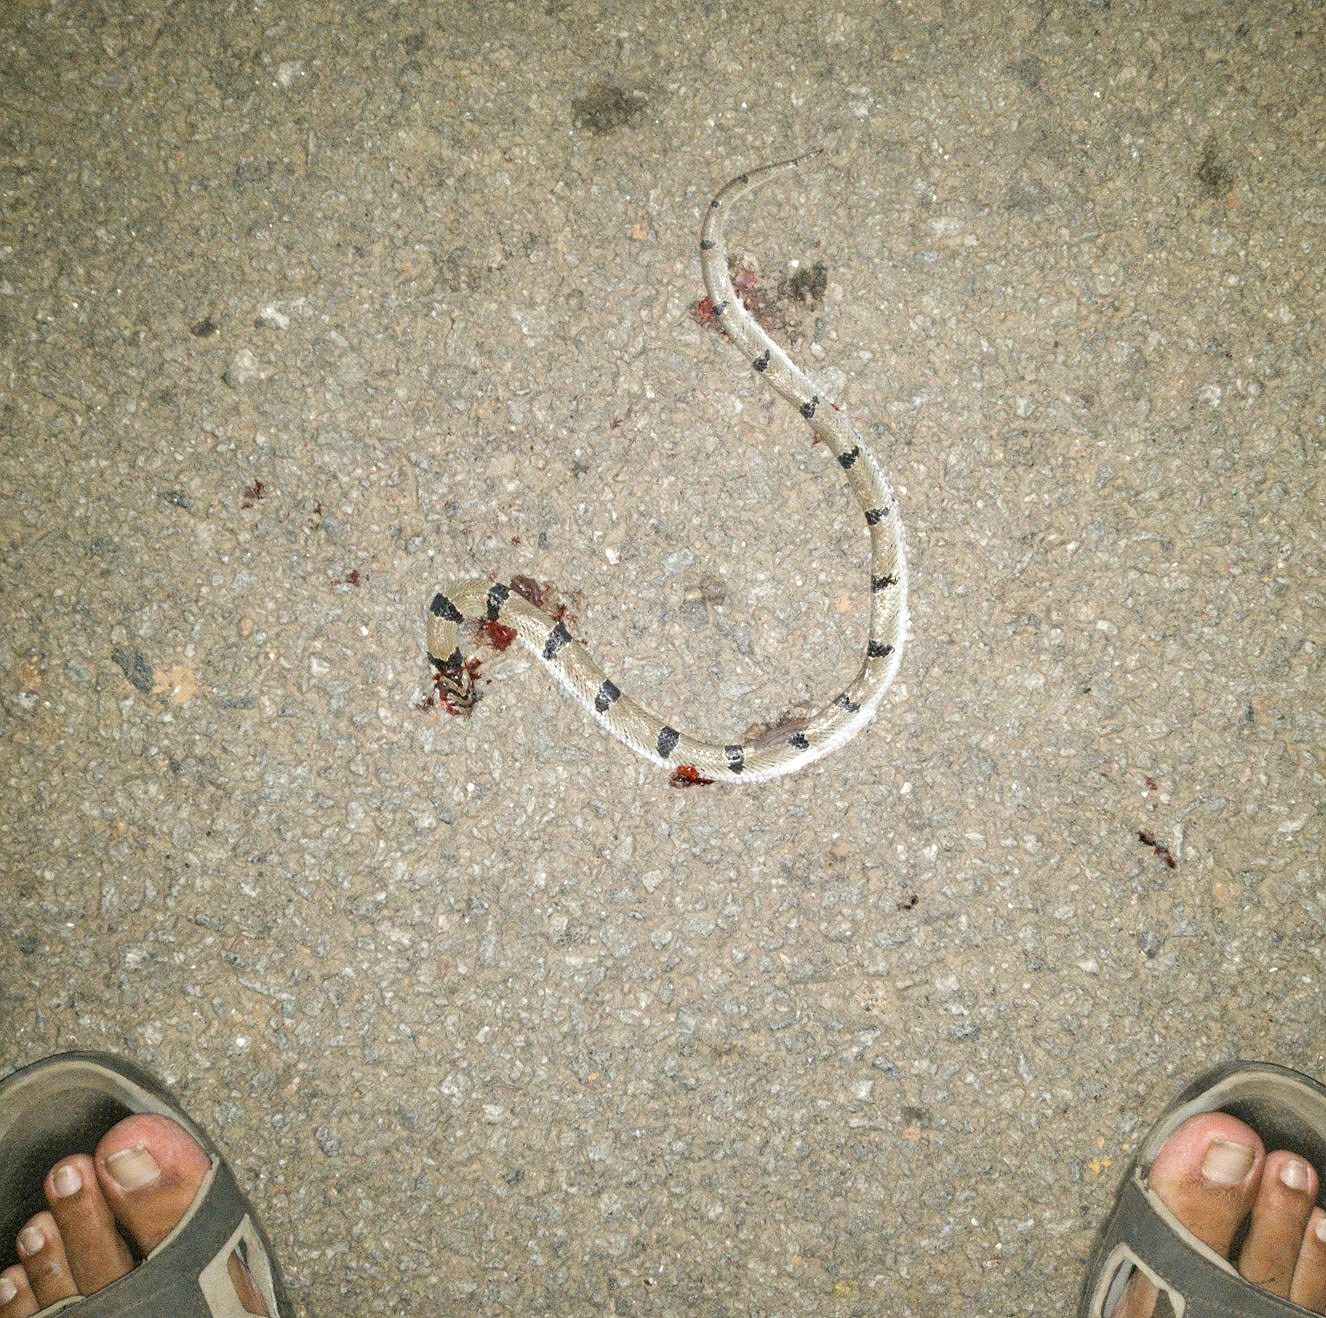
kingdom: Animalia
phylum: Chordata
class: Squamata
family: Colubridae
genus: Oligodon
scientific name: Oligodon arnensis
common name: Banded kukri
